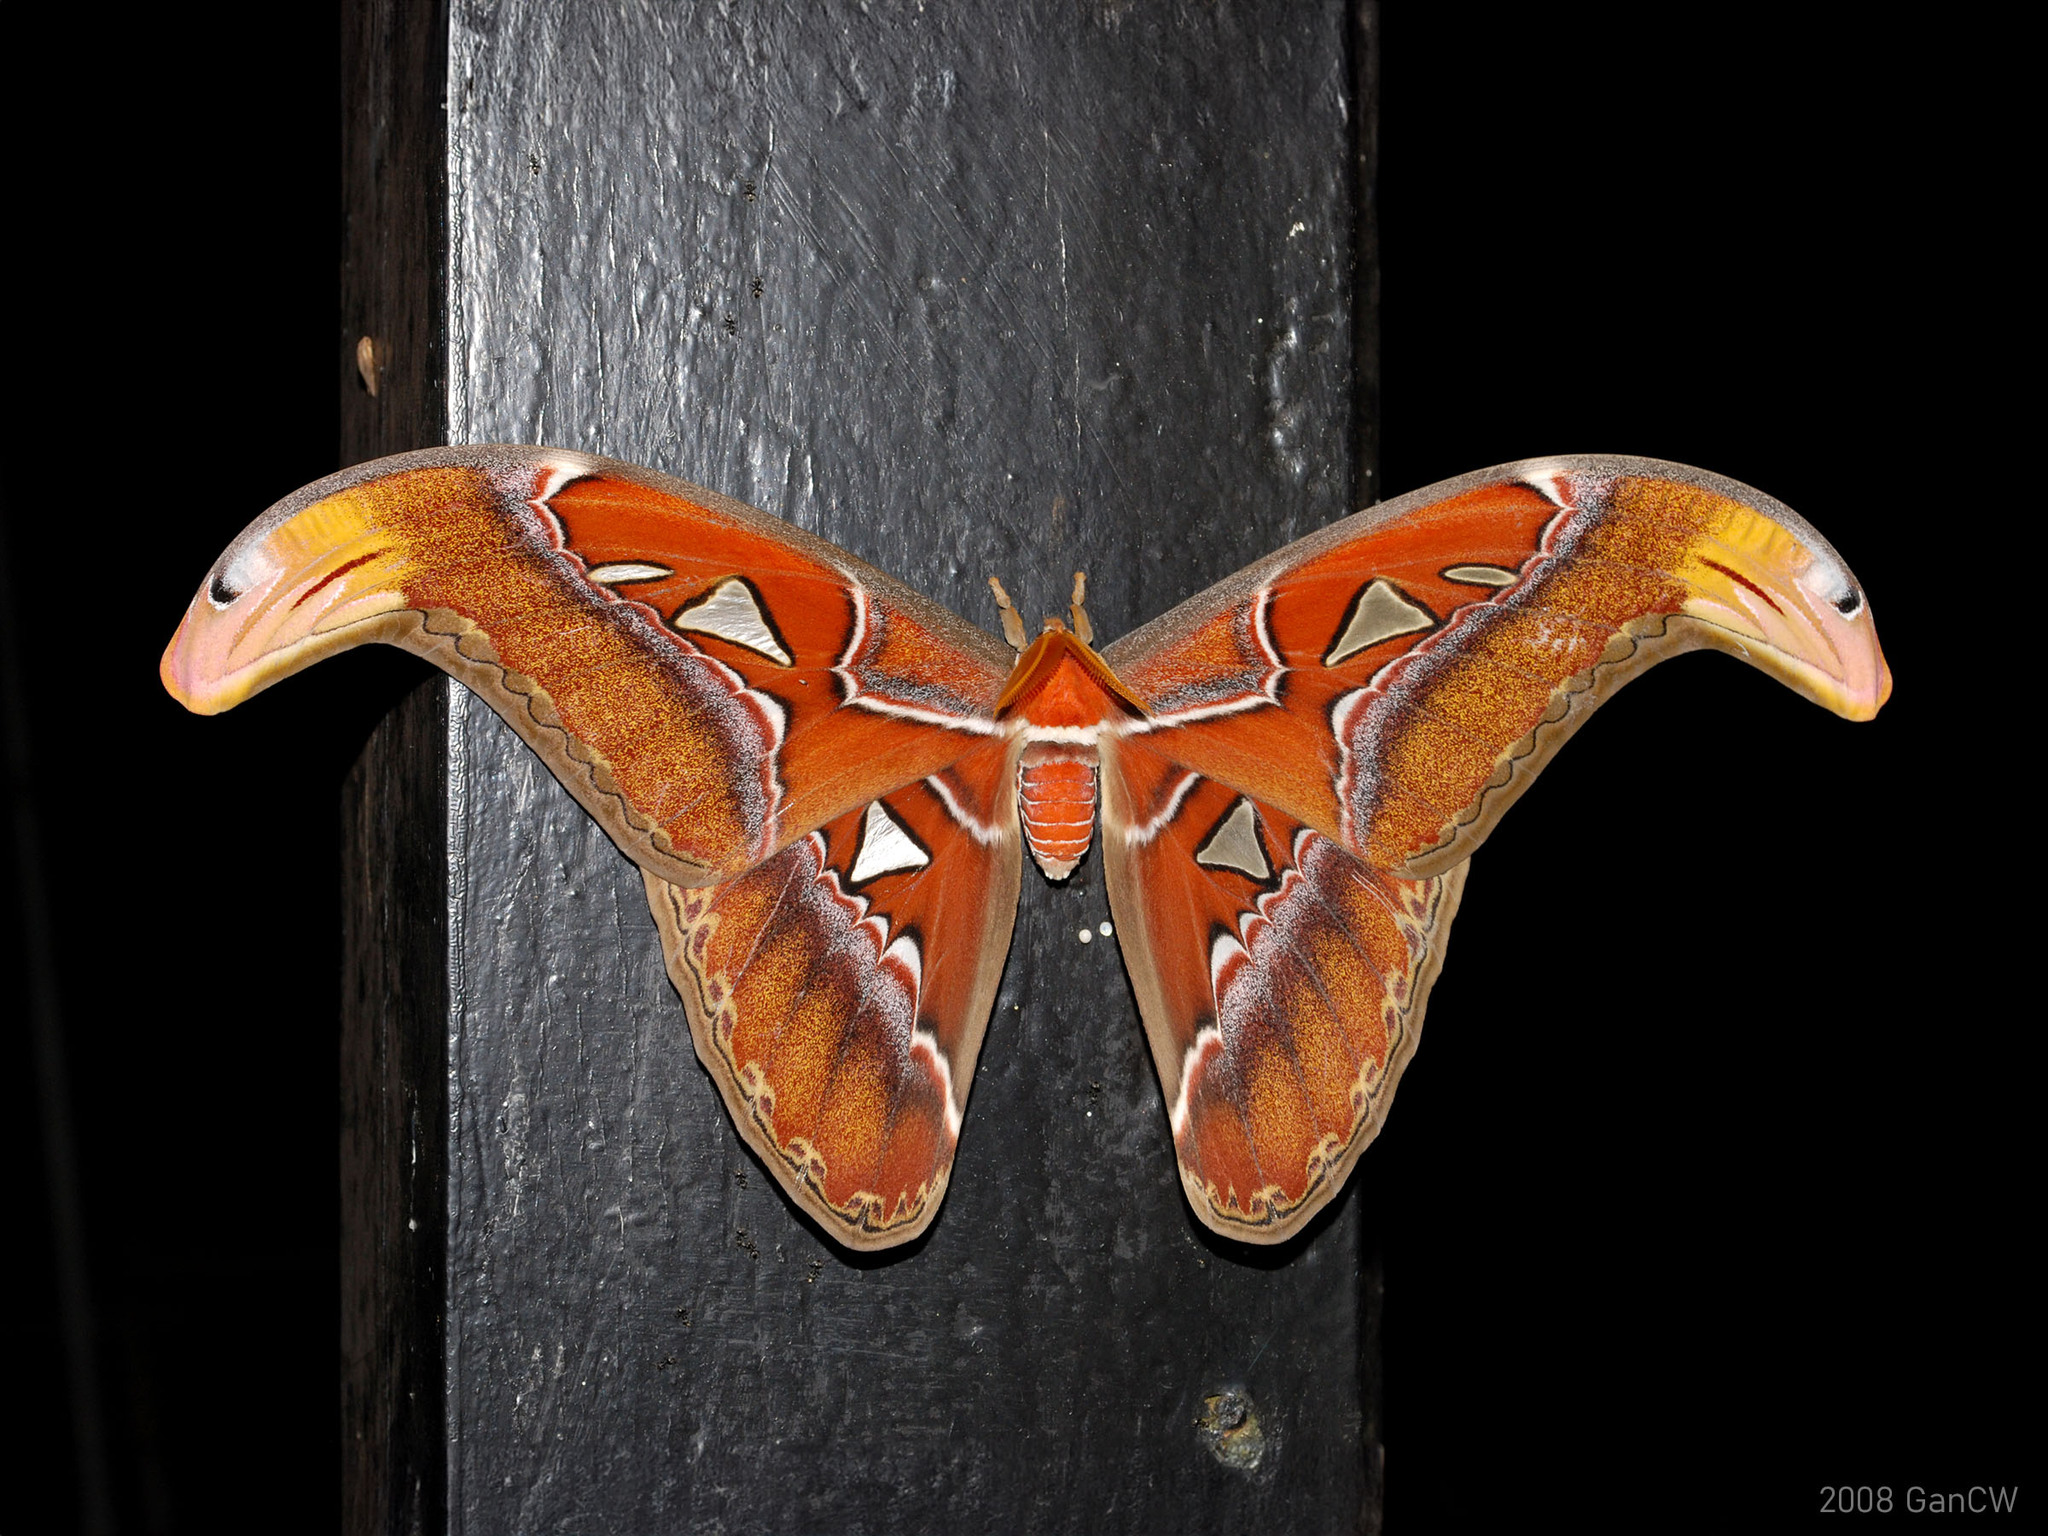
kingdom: Animalia
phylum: Arthropoda
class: Insecta
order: Lepidoptera
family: Saturniidae
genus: Attacus
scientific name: Attacus atlas
